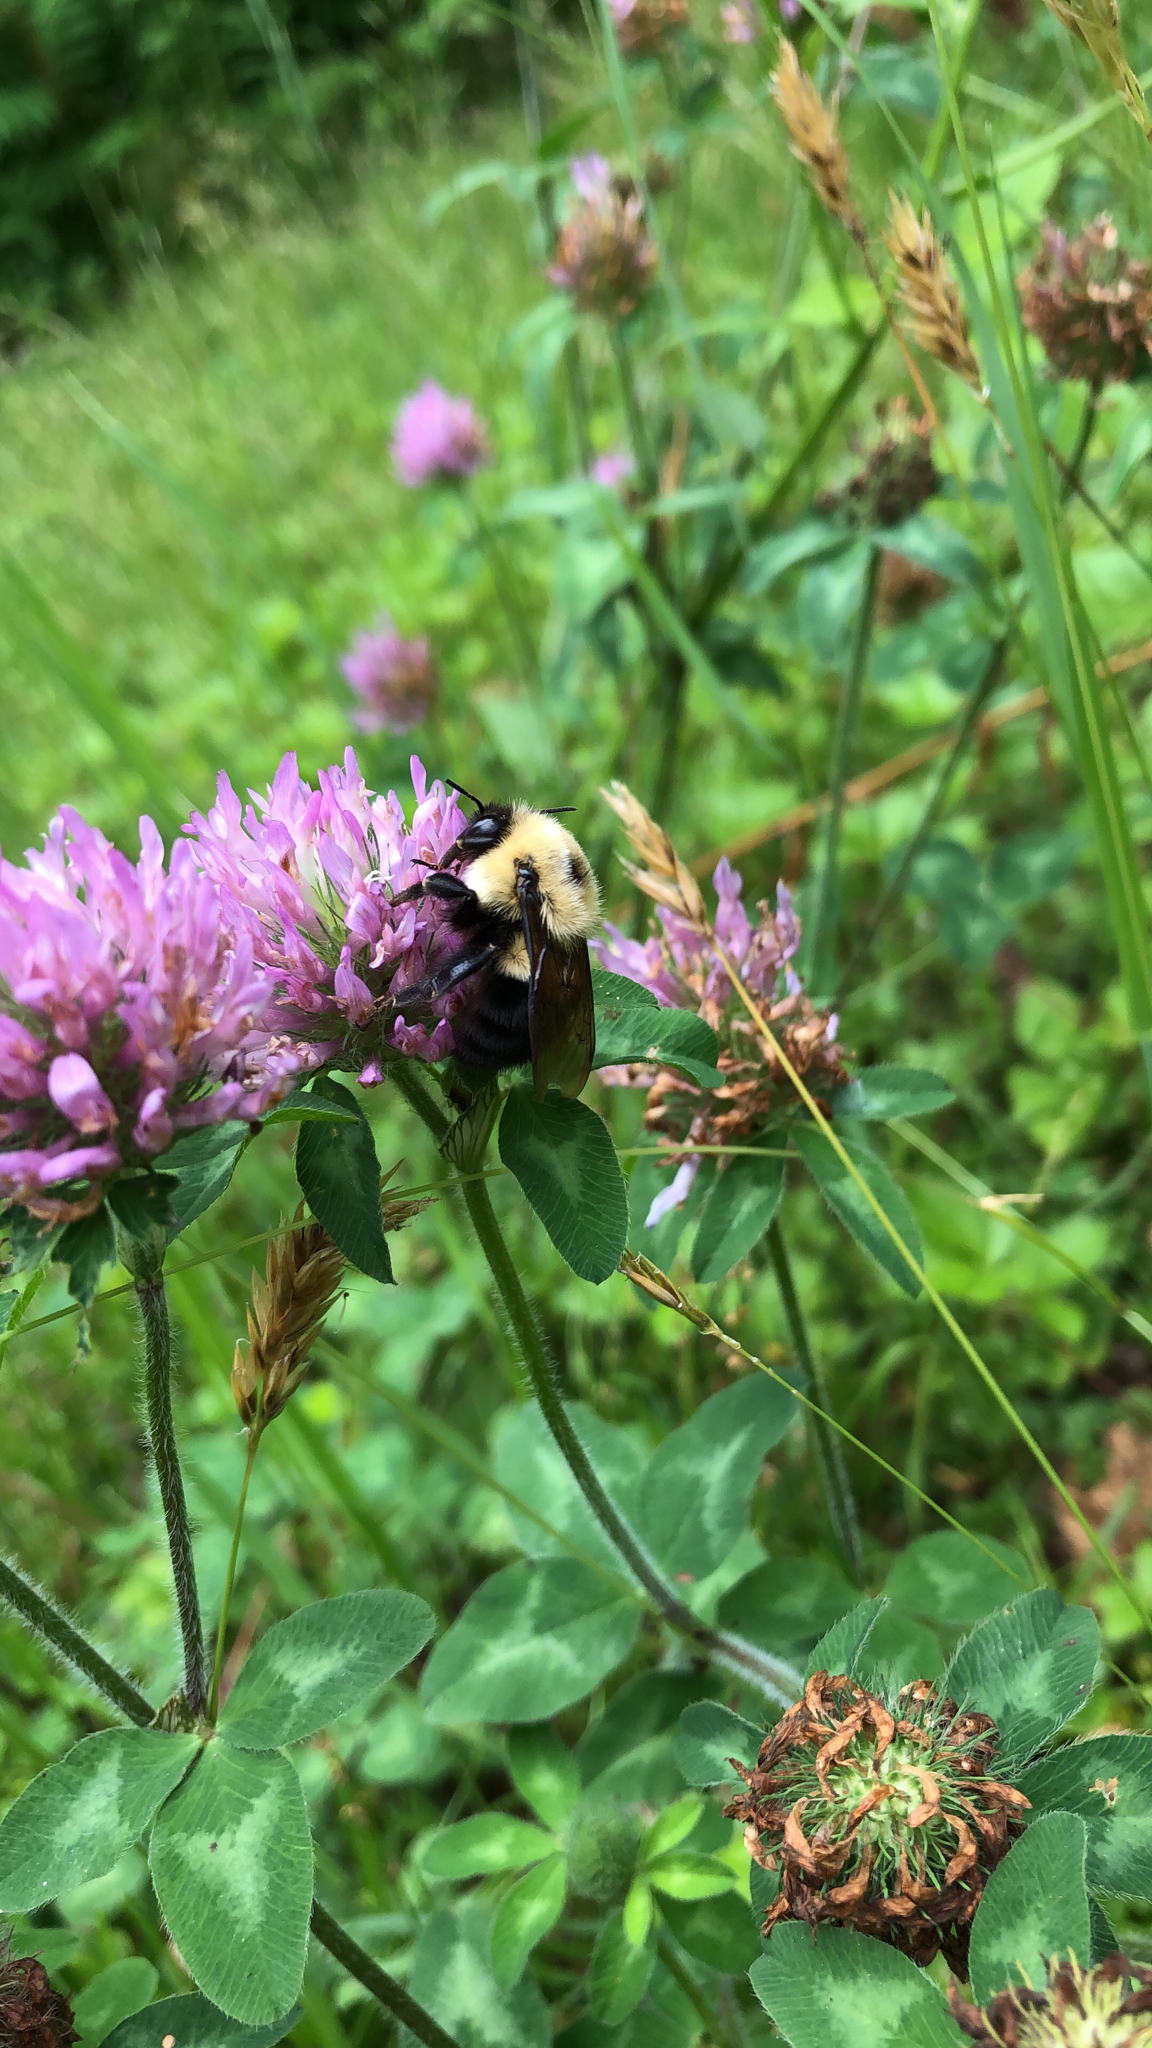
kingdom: Animalia
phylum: Arthropoda
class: Insecta
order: Hymenoptera
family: Apidae
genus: Bombus
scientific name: Bombus bimaculatus
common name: Two-spotted bumble bee
